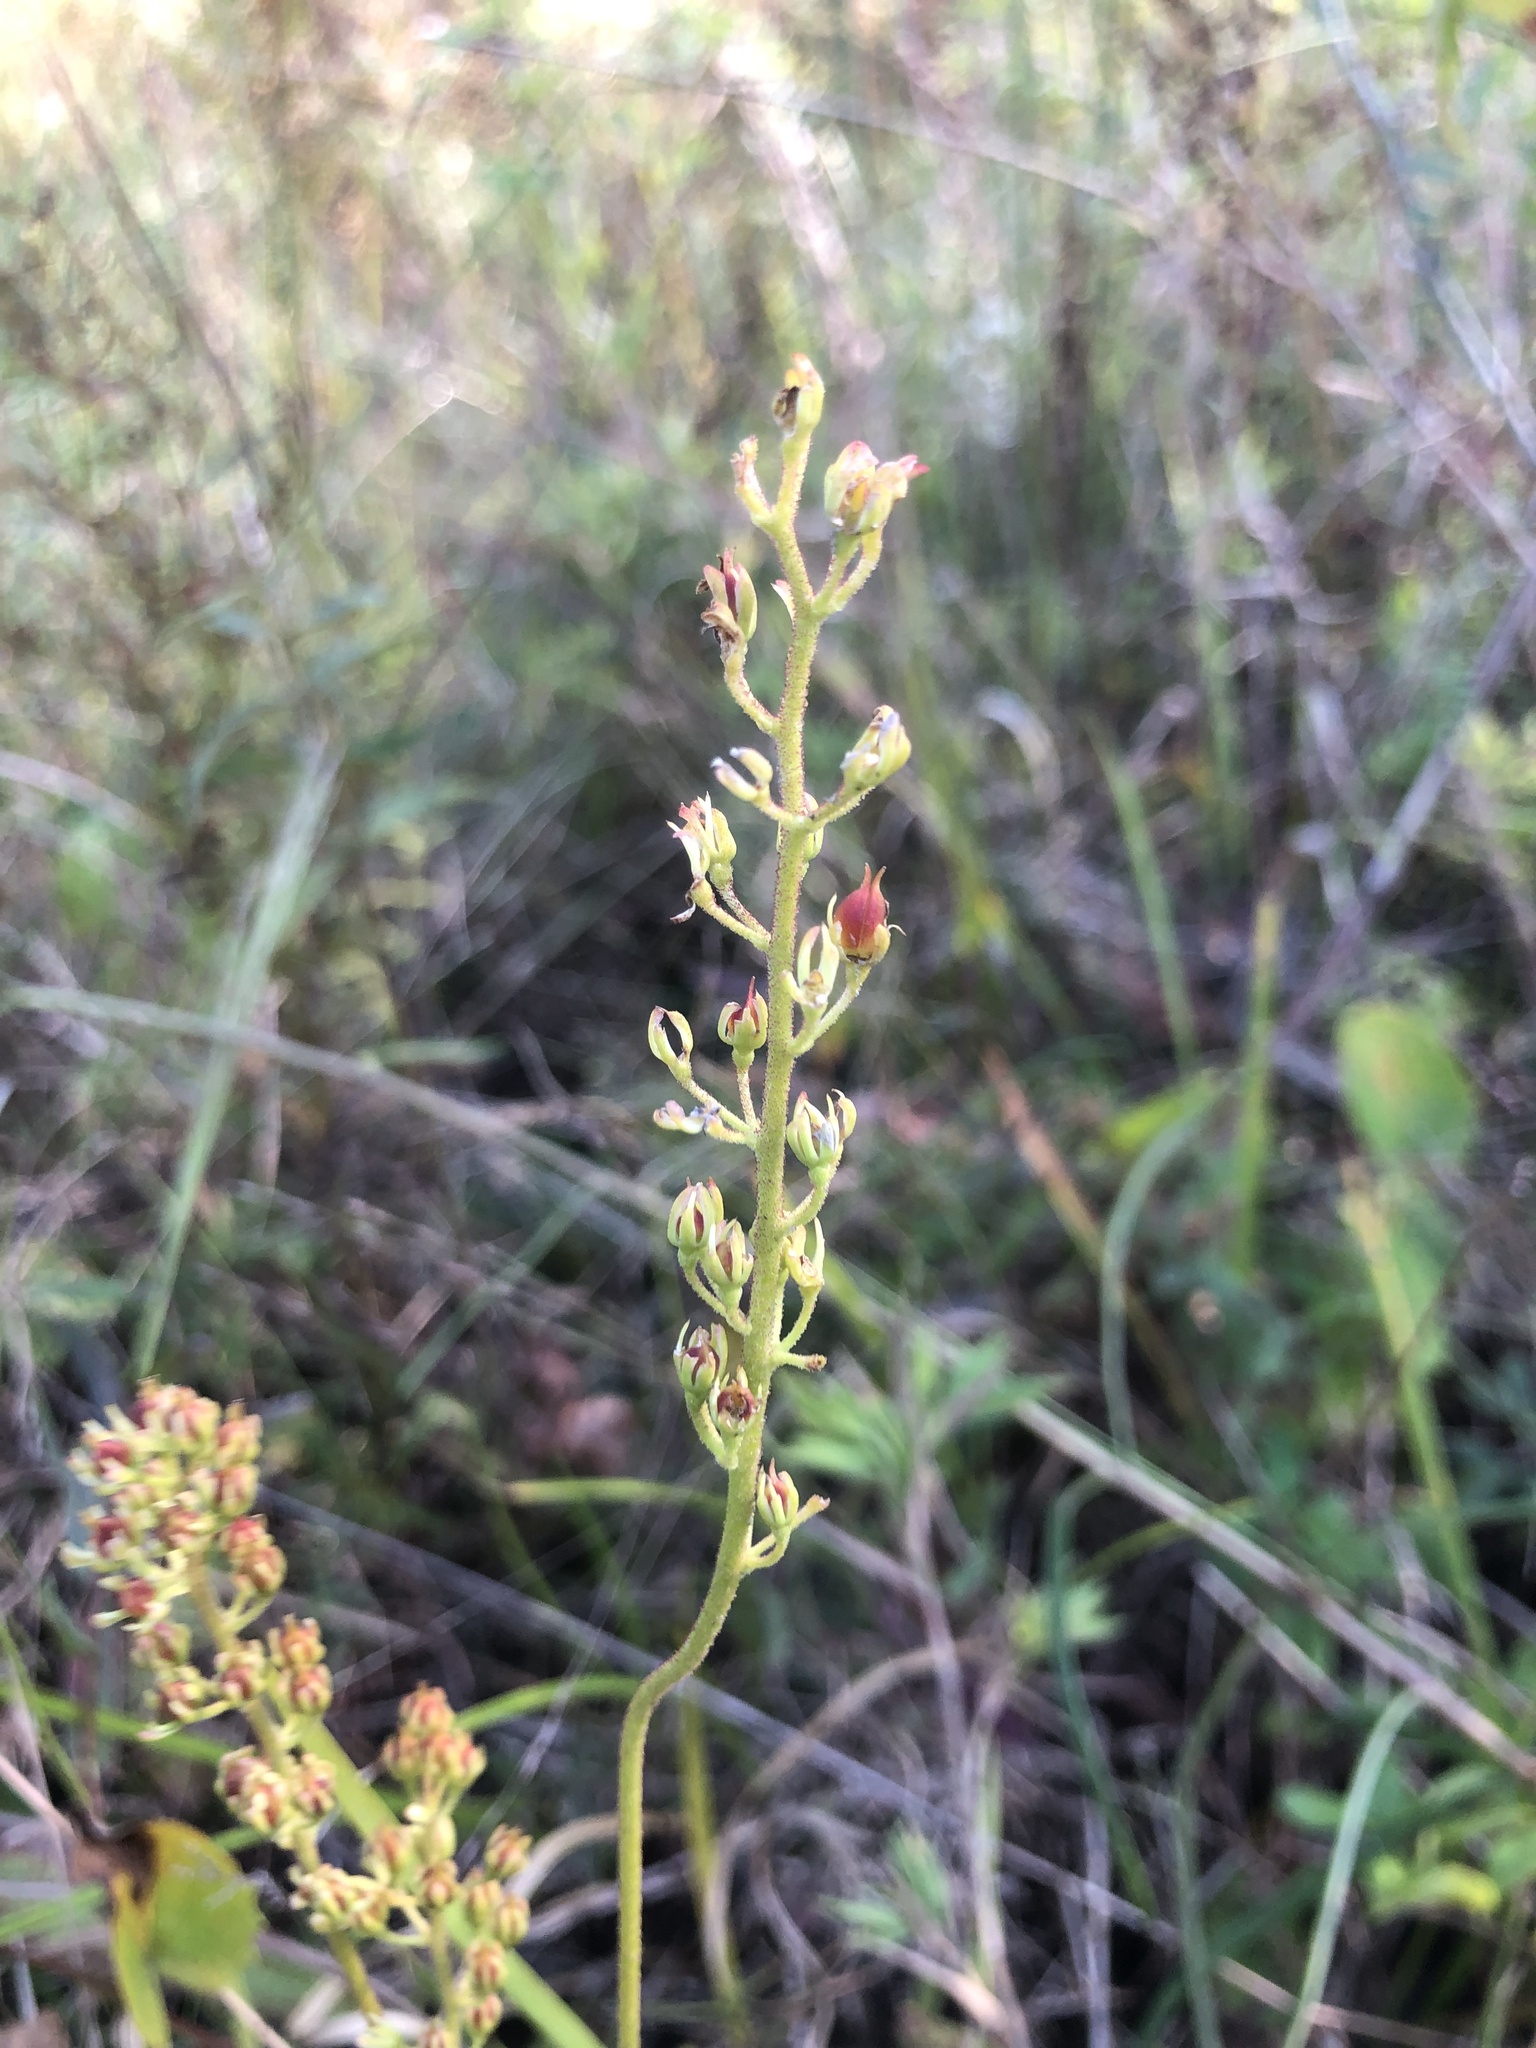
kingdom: Plantae
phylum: Tracheophyta
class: Liliopsida
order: Alismatales
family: Tofieldiaceae
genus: Triantha
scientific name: Triantha racemosa
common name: Coastal false asphodel
